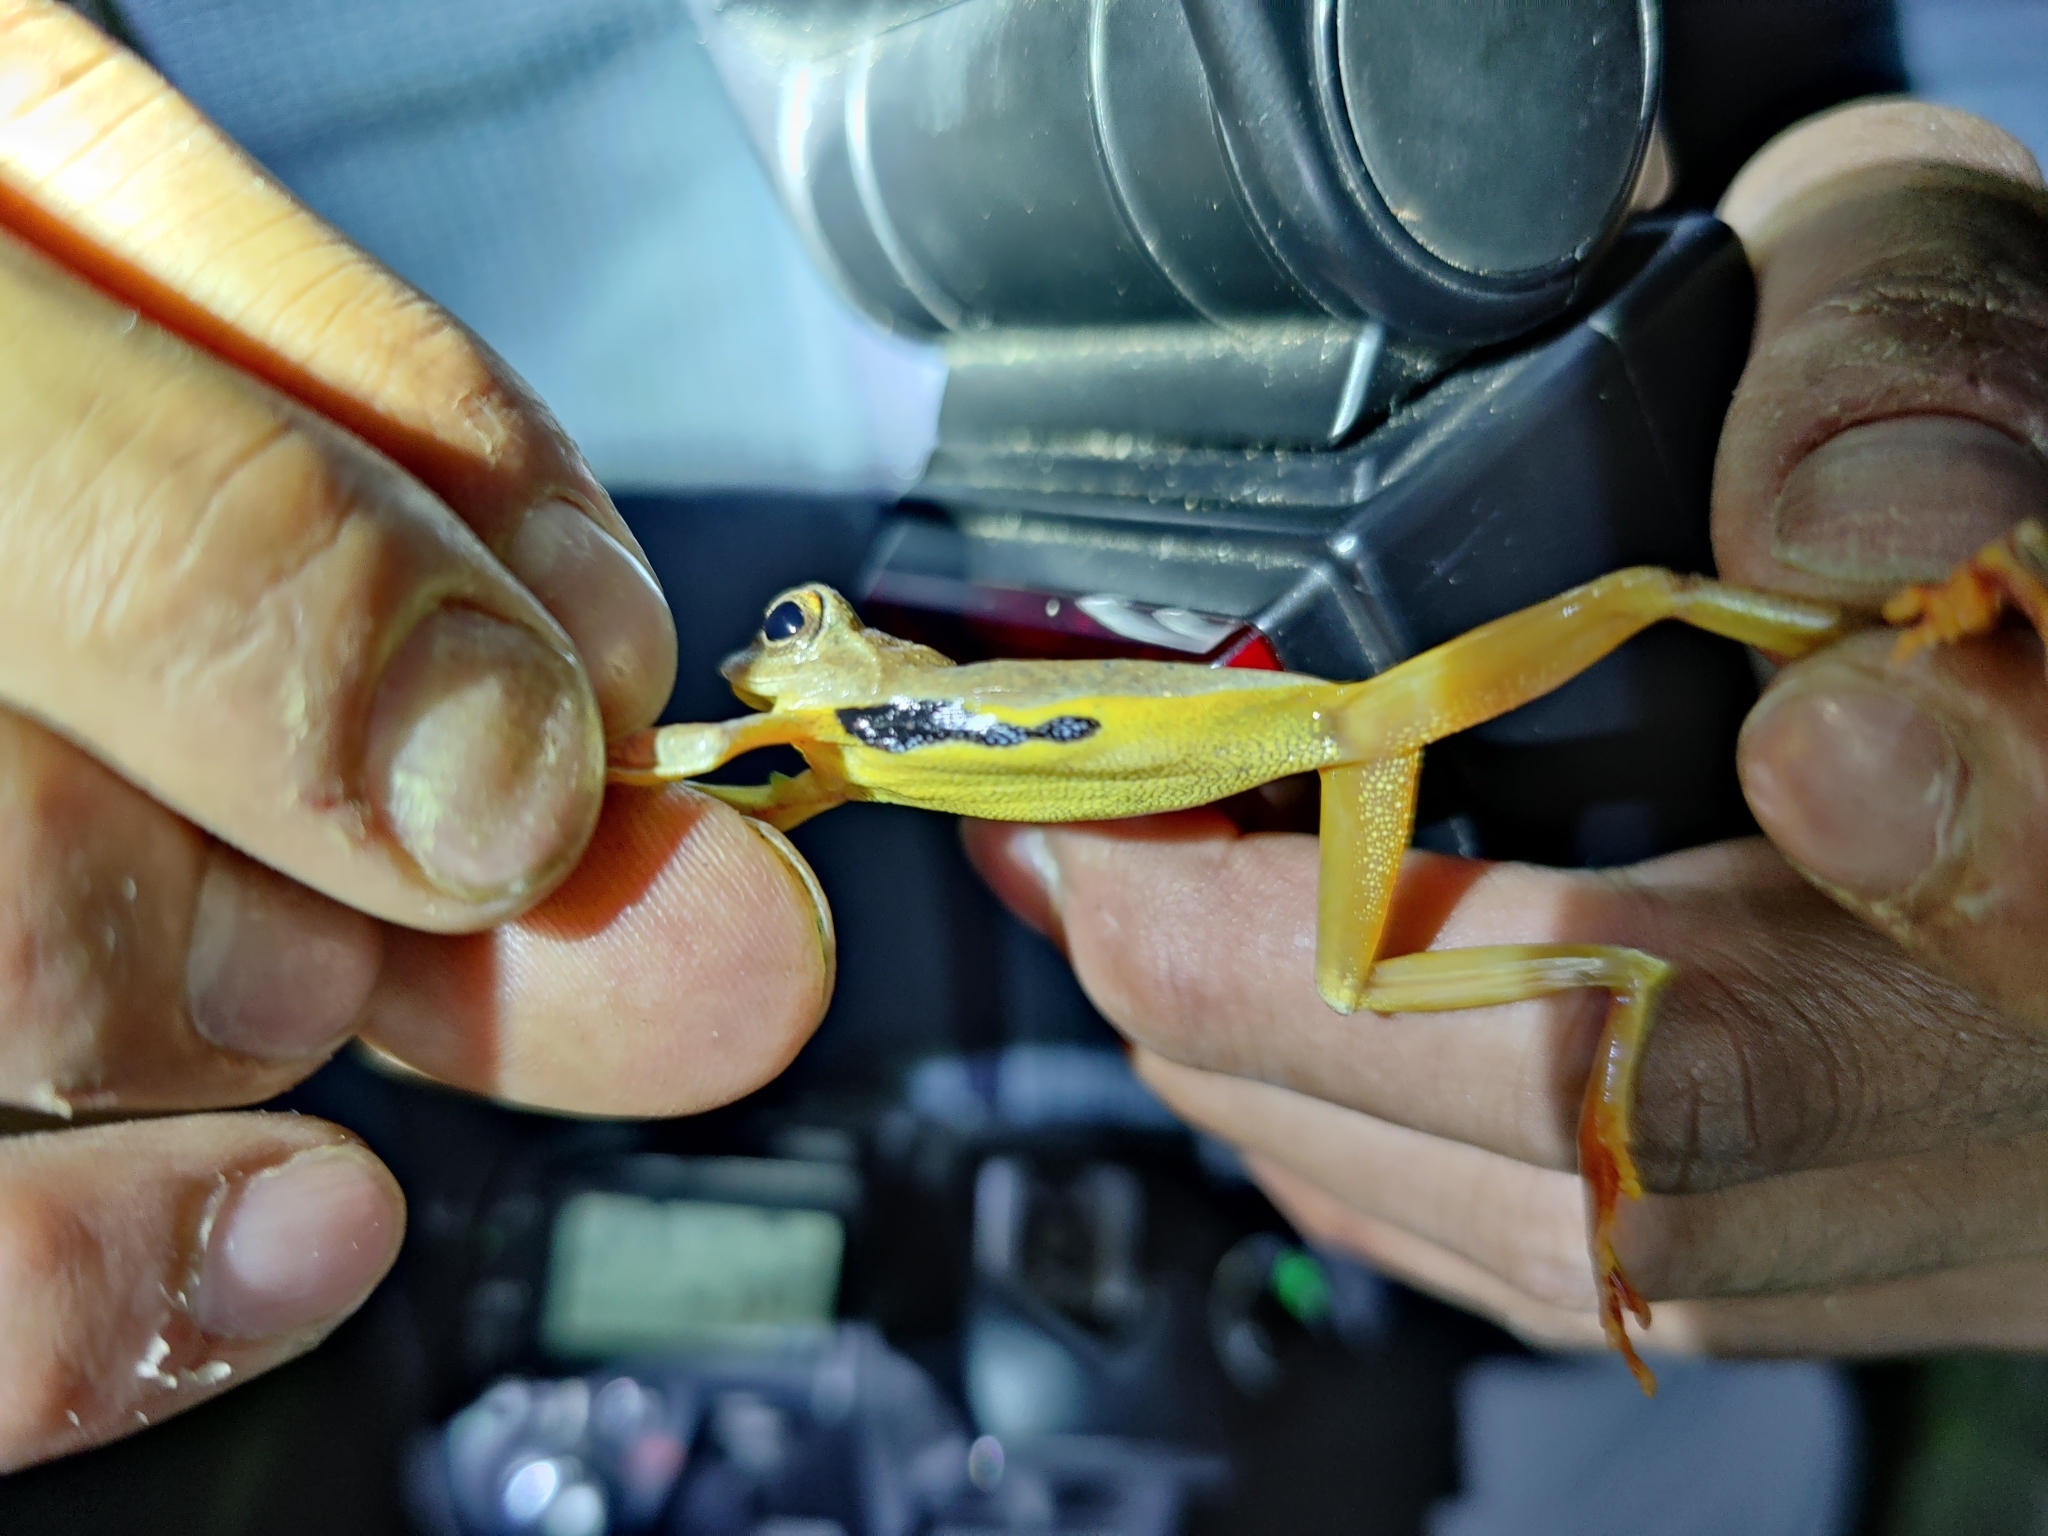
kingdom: Animalia
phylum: Chordata
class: Amphibia
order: Anura
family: Rhacophoridae
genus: Rhacophorus
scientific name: Rhacophorus subansiriensis
